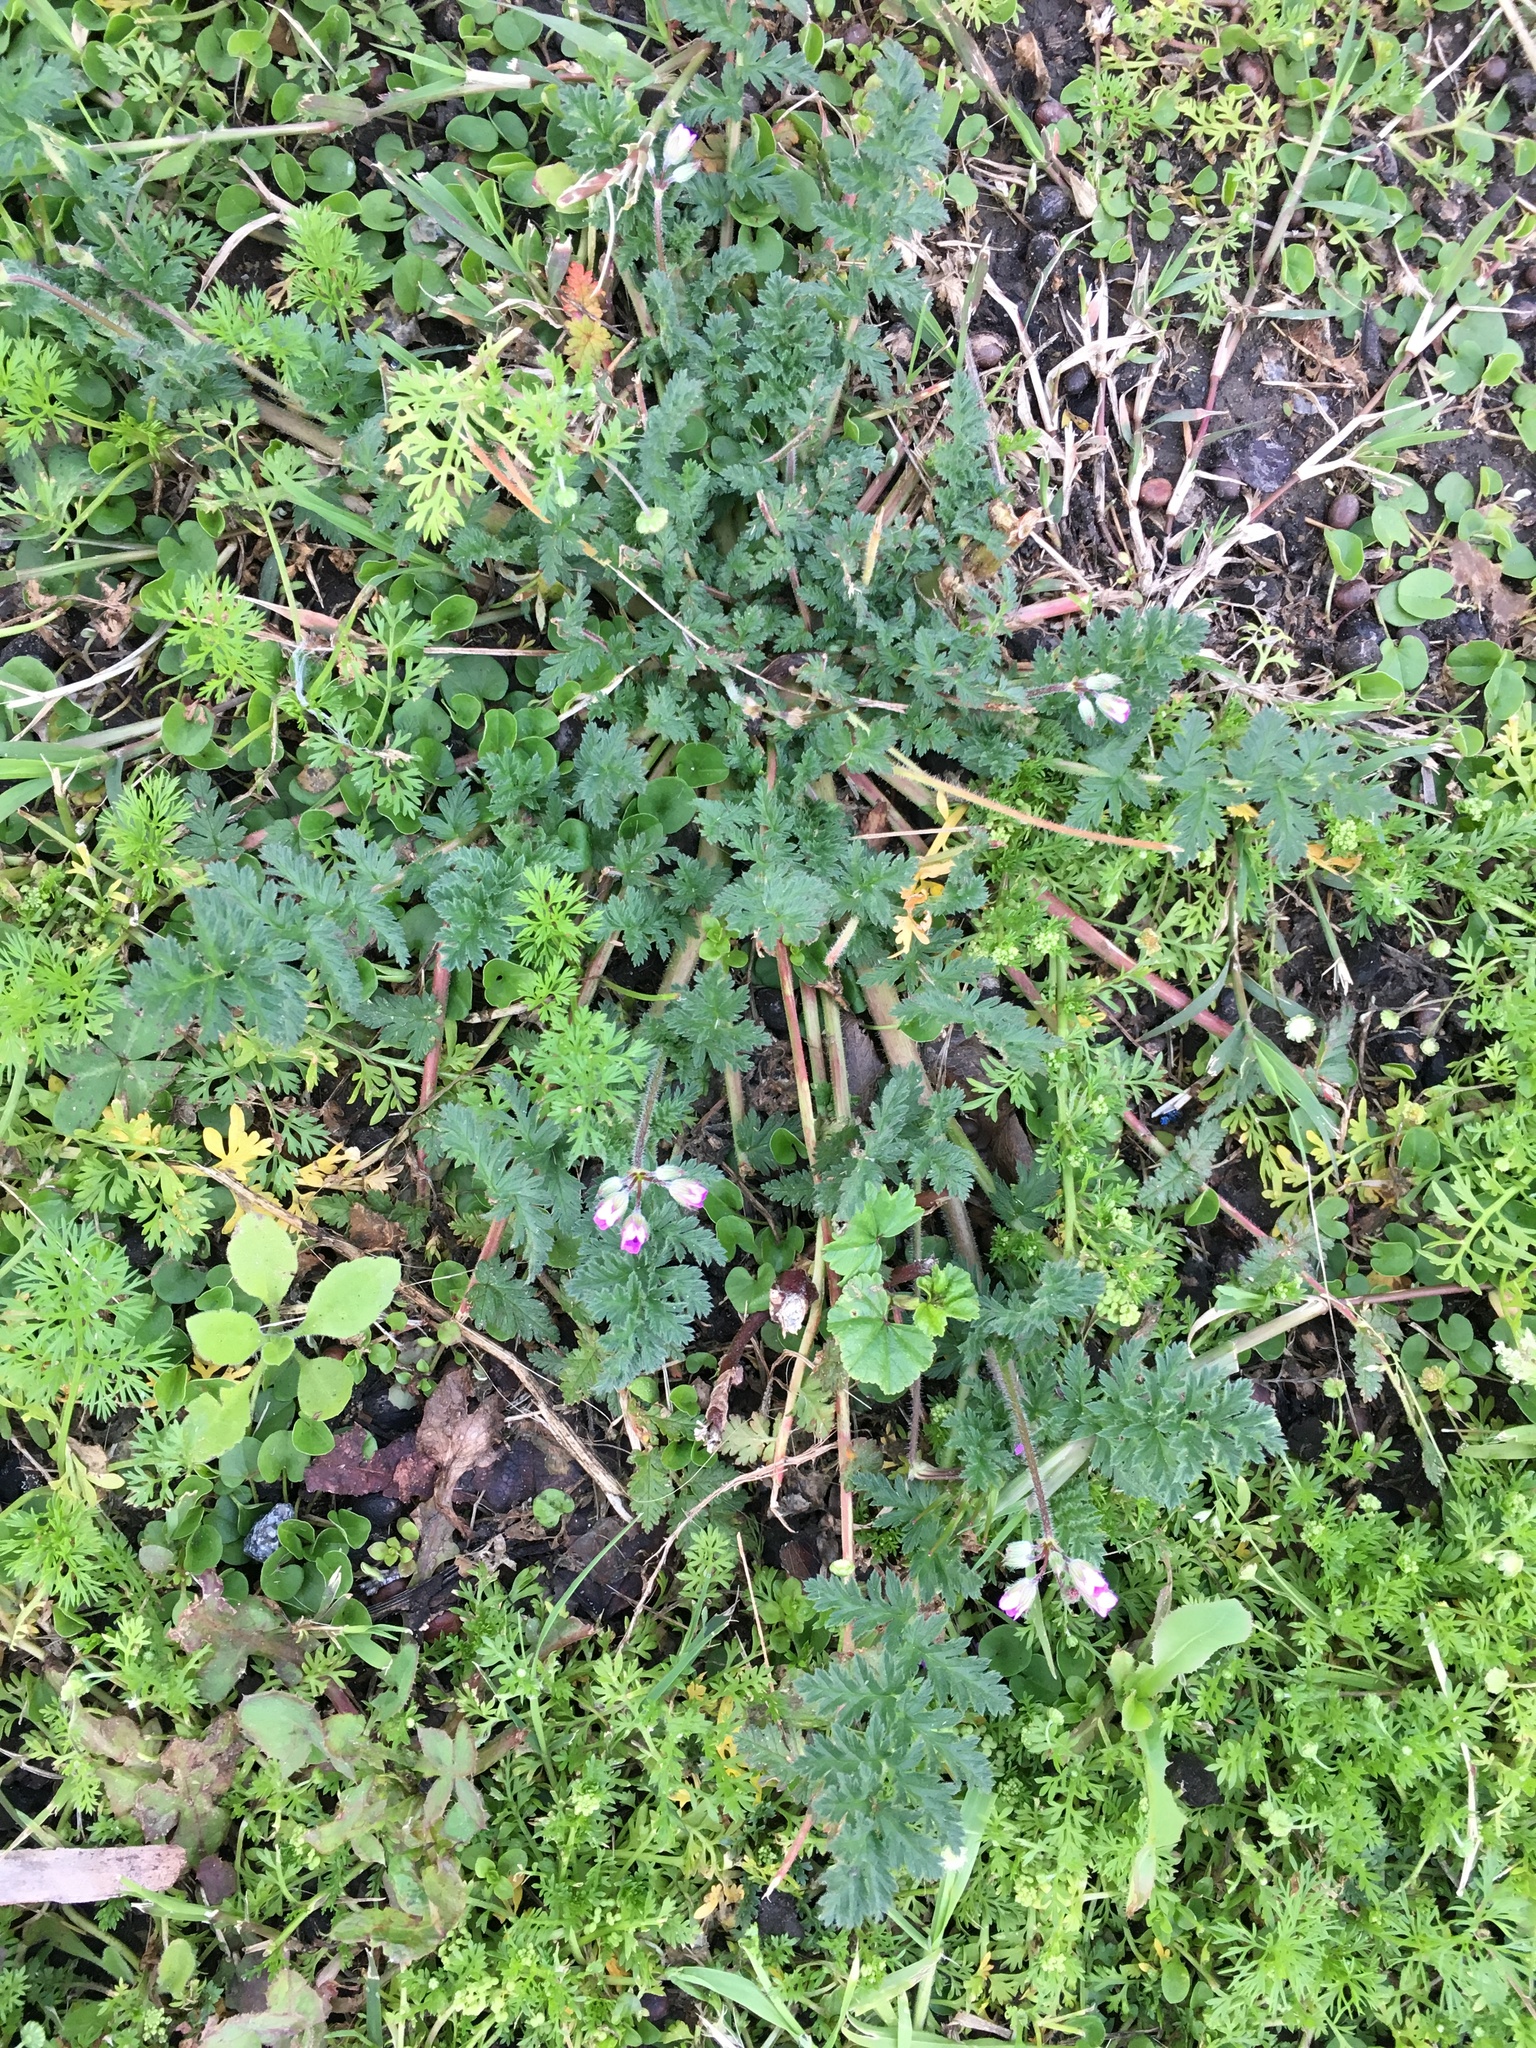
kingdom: Plantae
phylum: Tracheophyta
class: Magnoliopsida
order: Geraniales
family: Geraniaceae
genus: Erodium
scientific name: Erodium cicutarium
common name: Common stork's-bill
